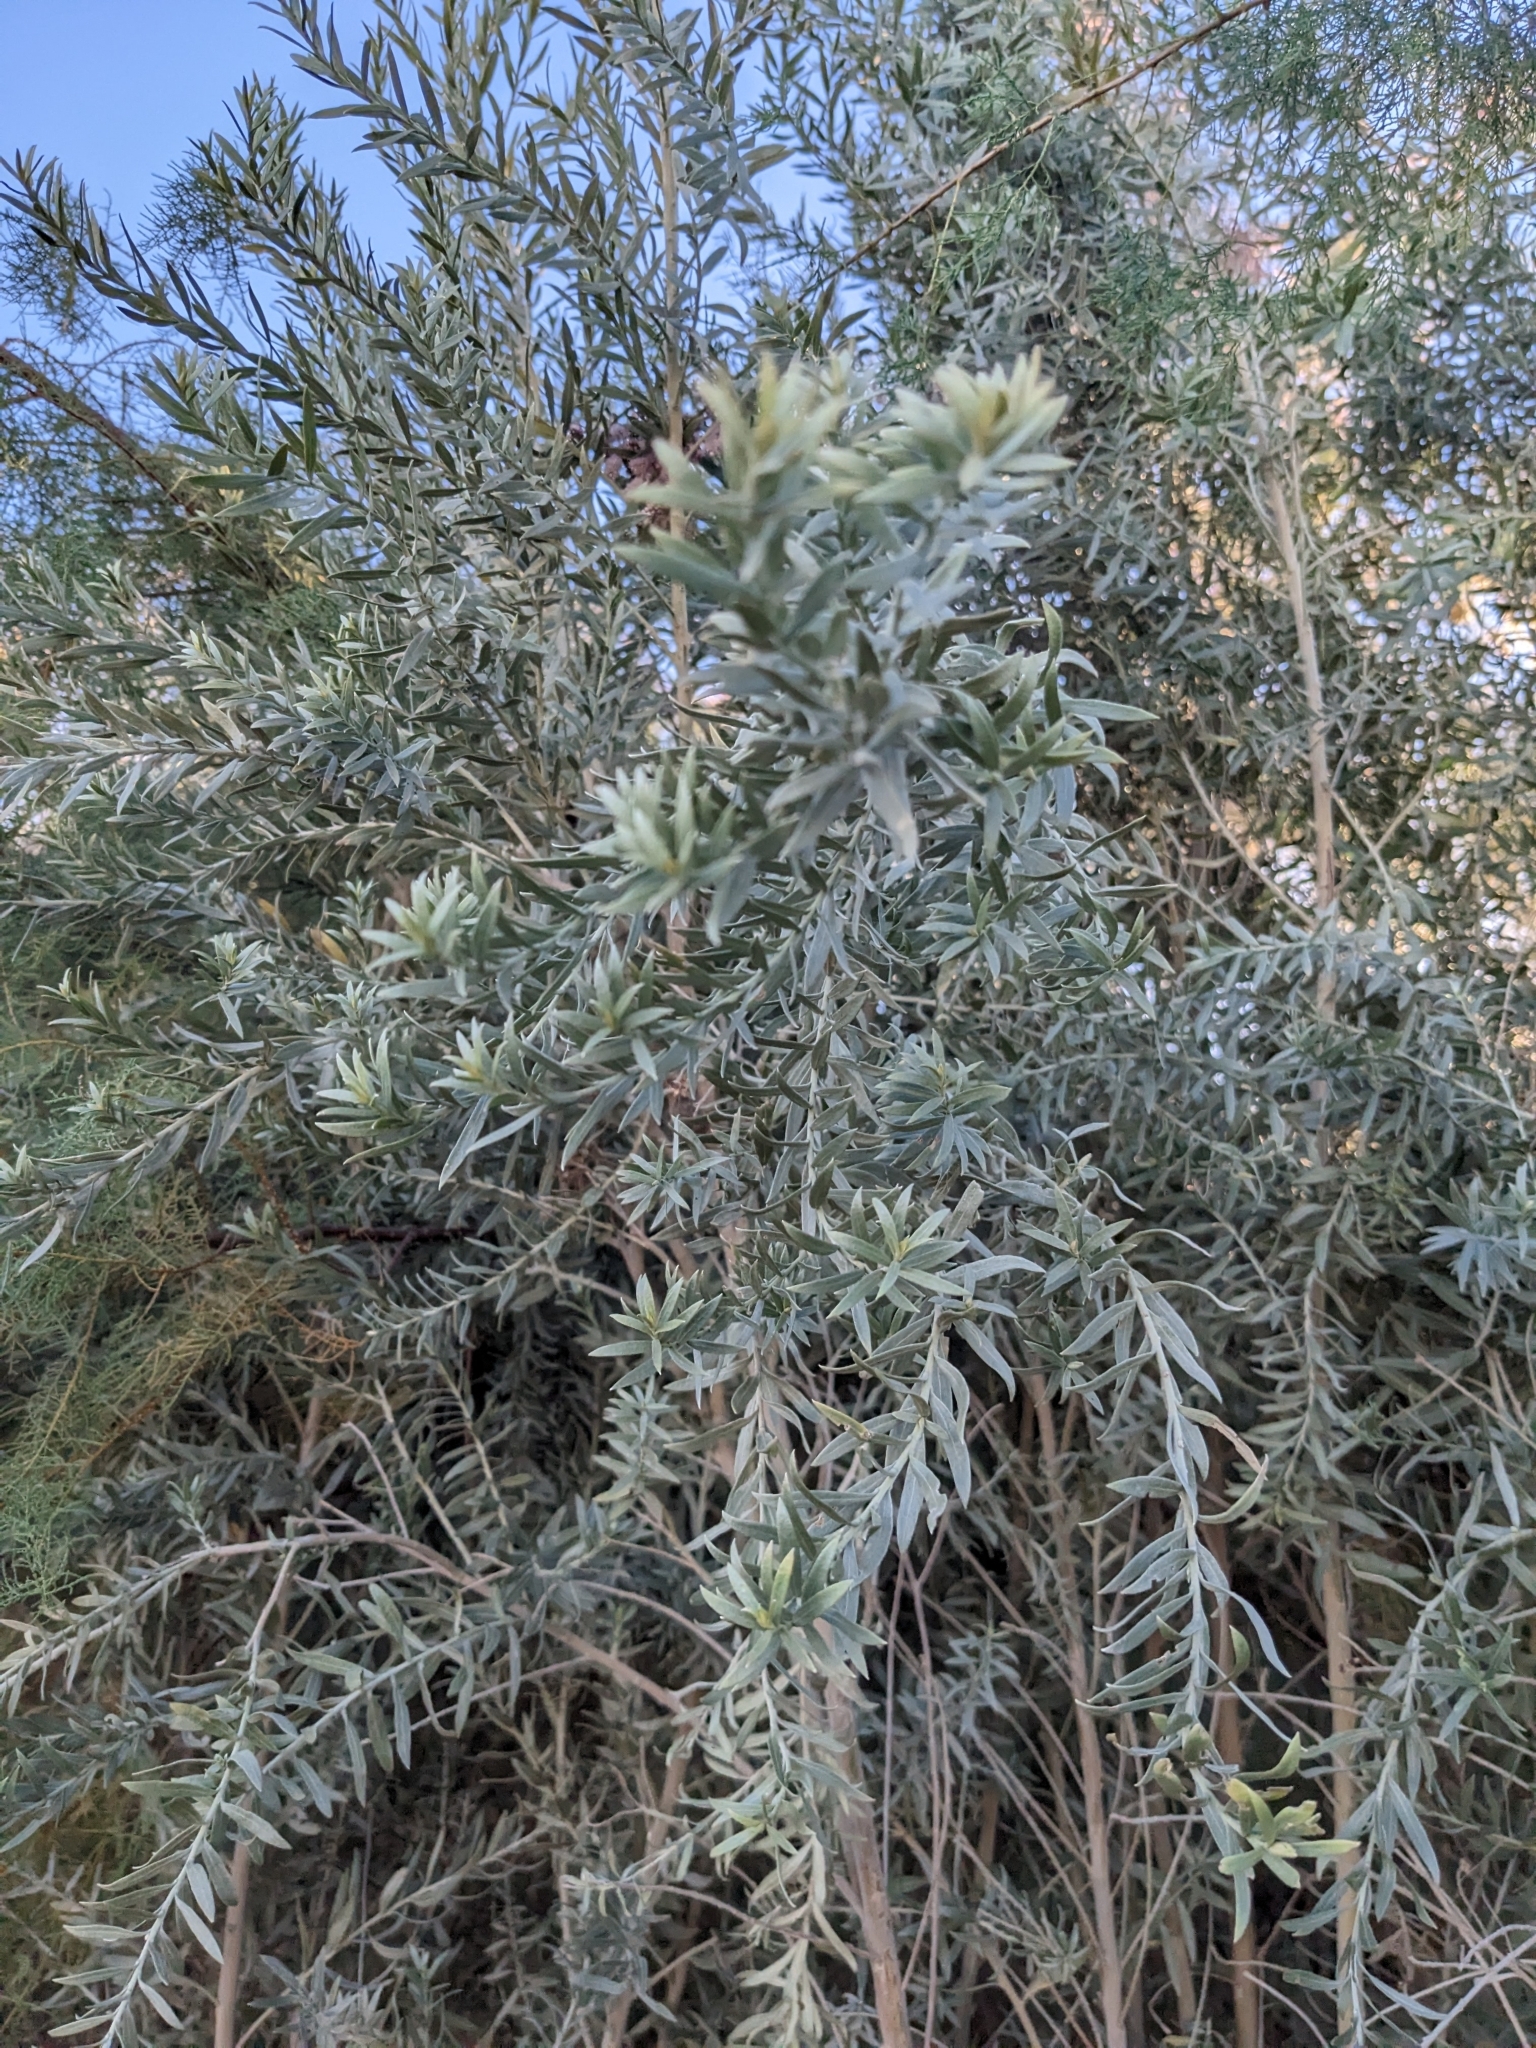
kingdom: Plantae
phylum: Tracheophyta
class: Magnoliopsida
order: Asterales
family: Asteraceae
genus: Pluchea
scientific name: Pluchea sericea
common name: Arrow-weed
